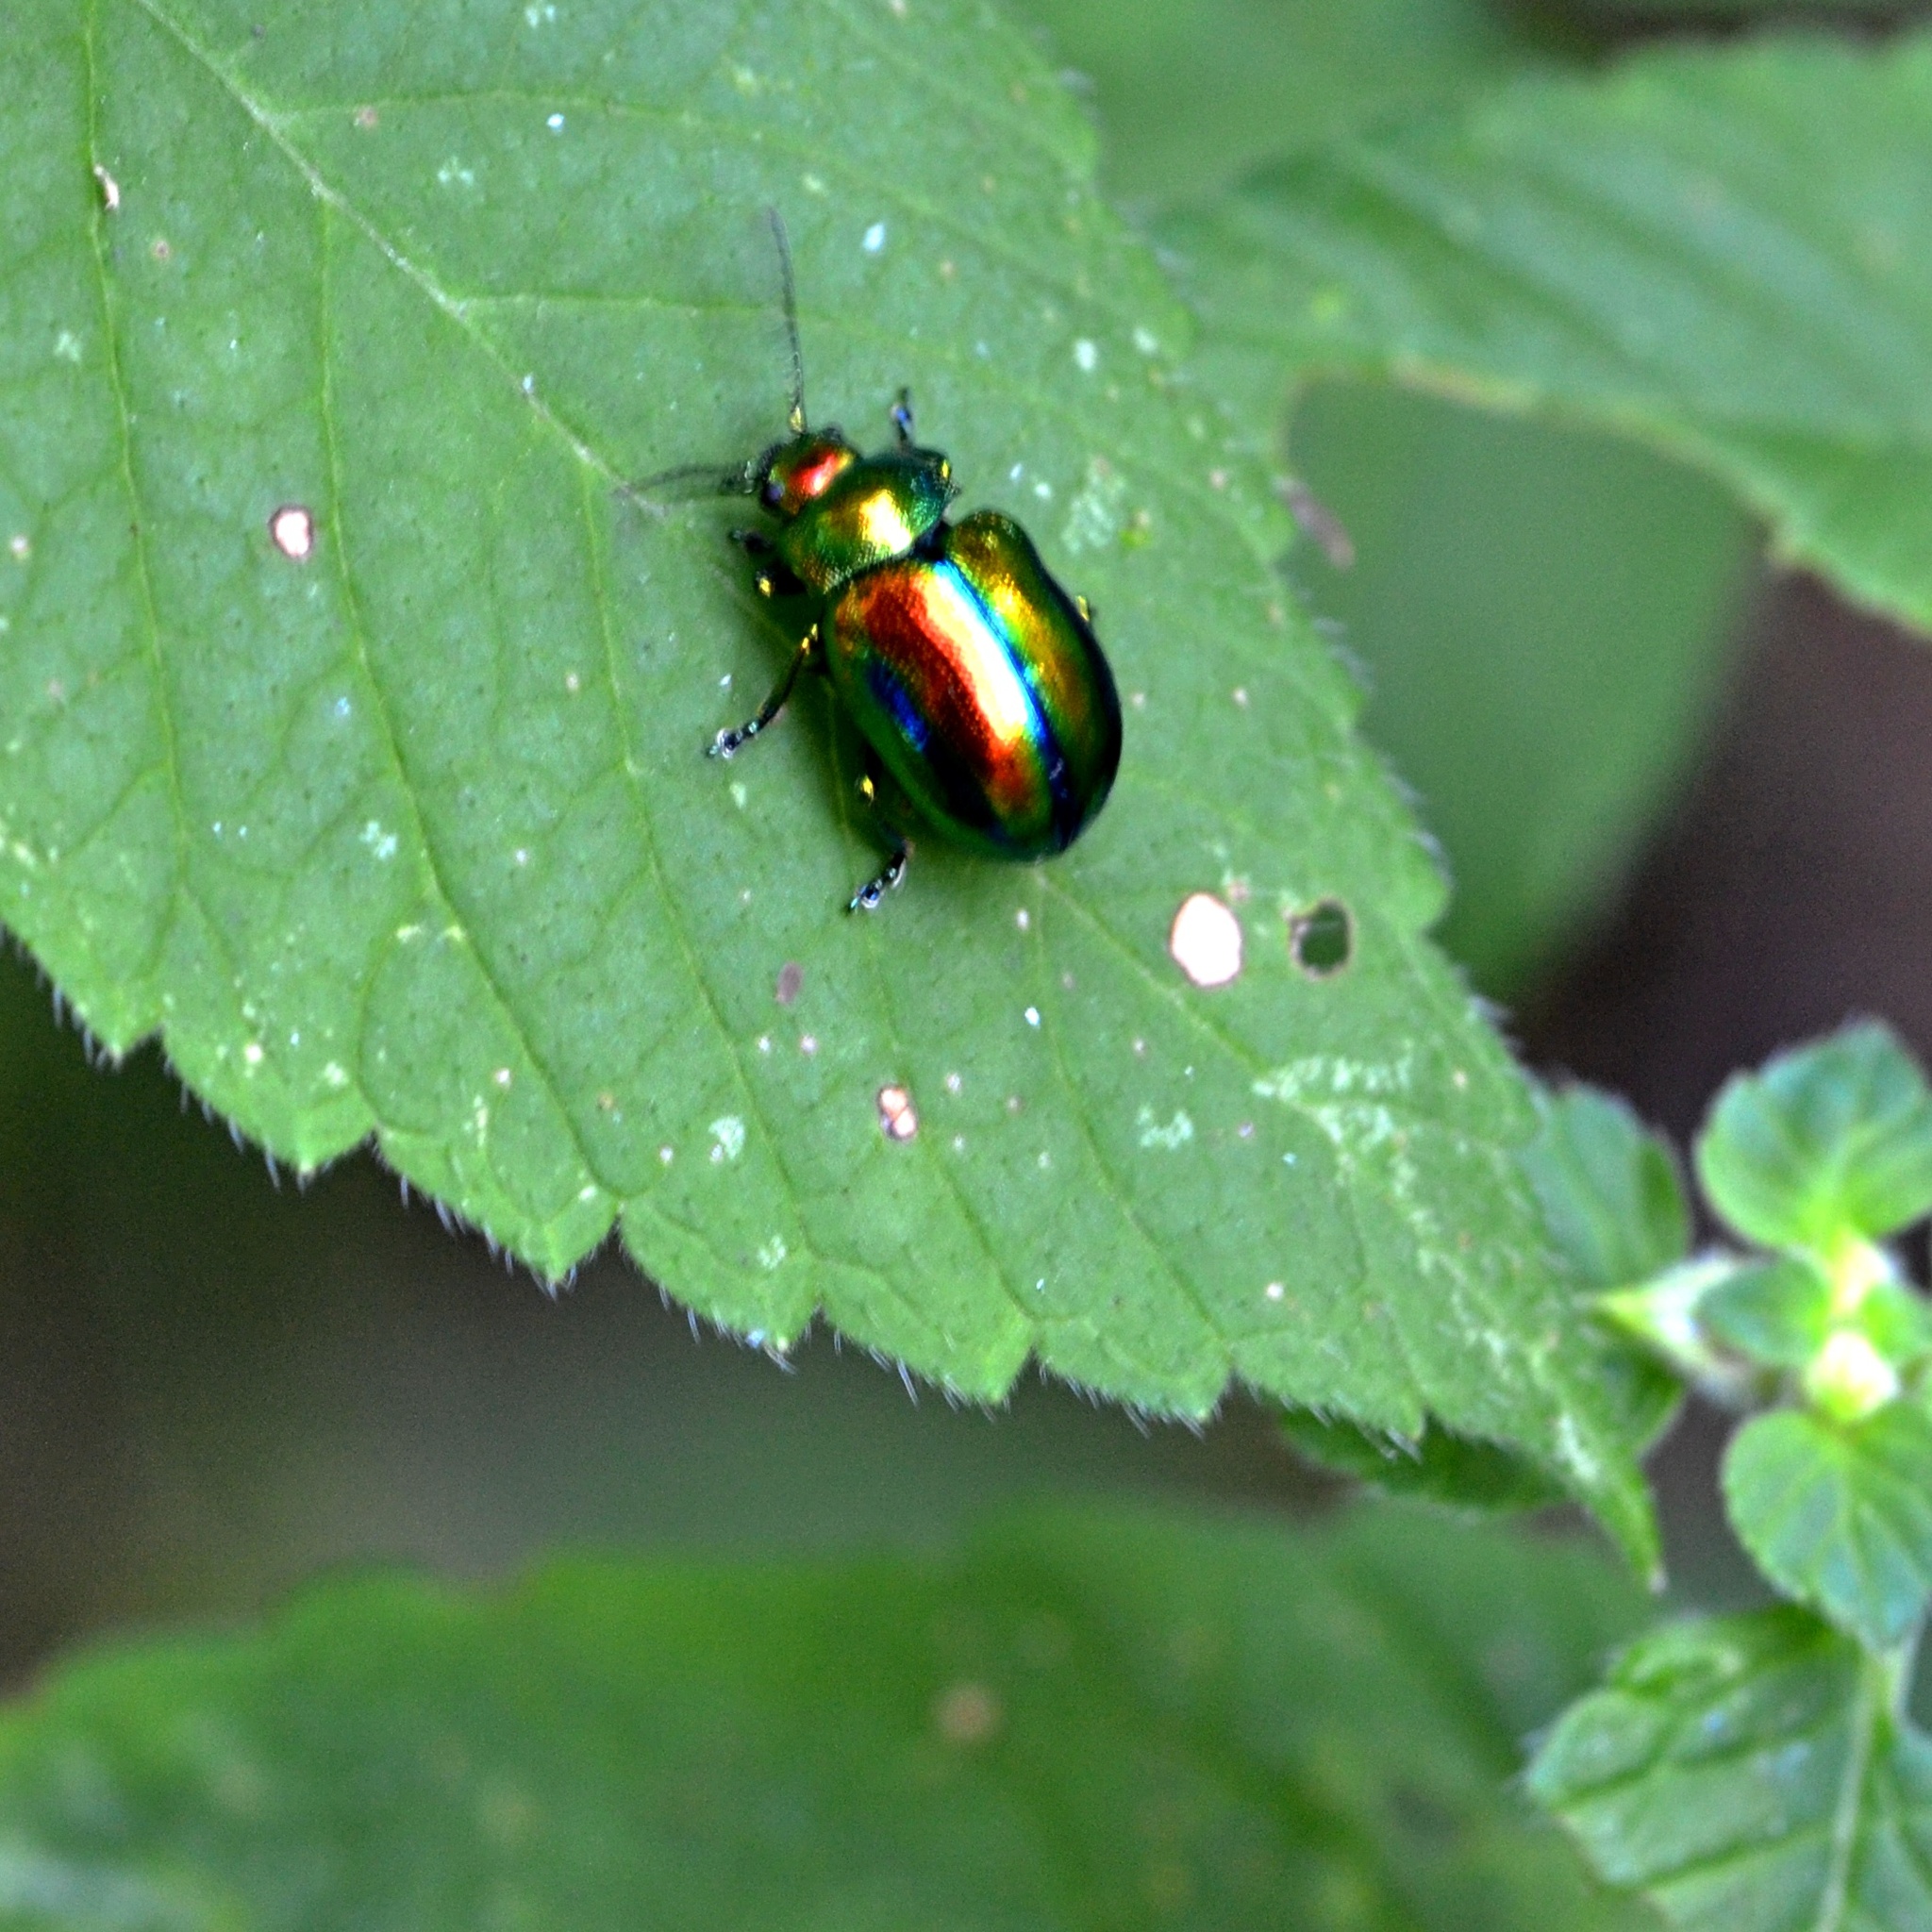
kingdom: Animalia
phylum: Arthropoda
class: Insecta
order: Coleoptera
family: Chrysomelidae
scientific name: Chrysomelidae
